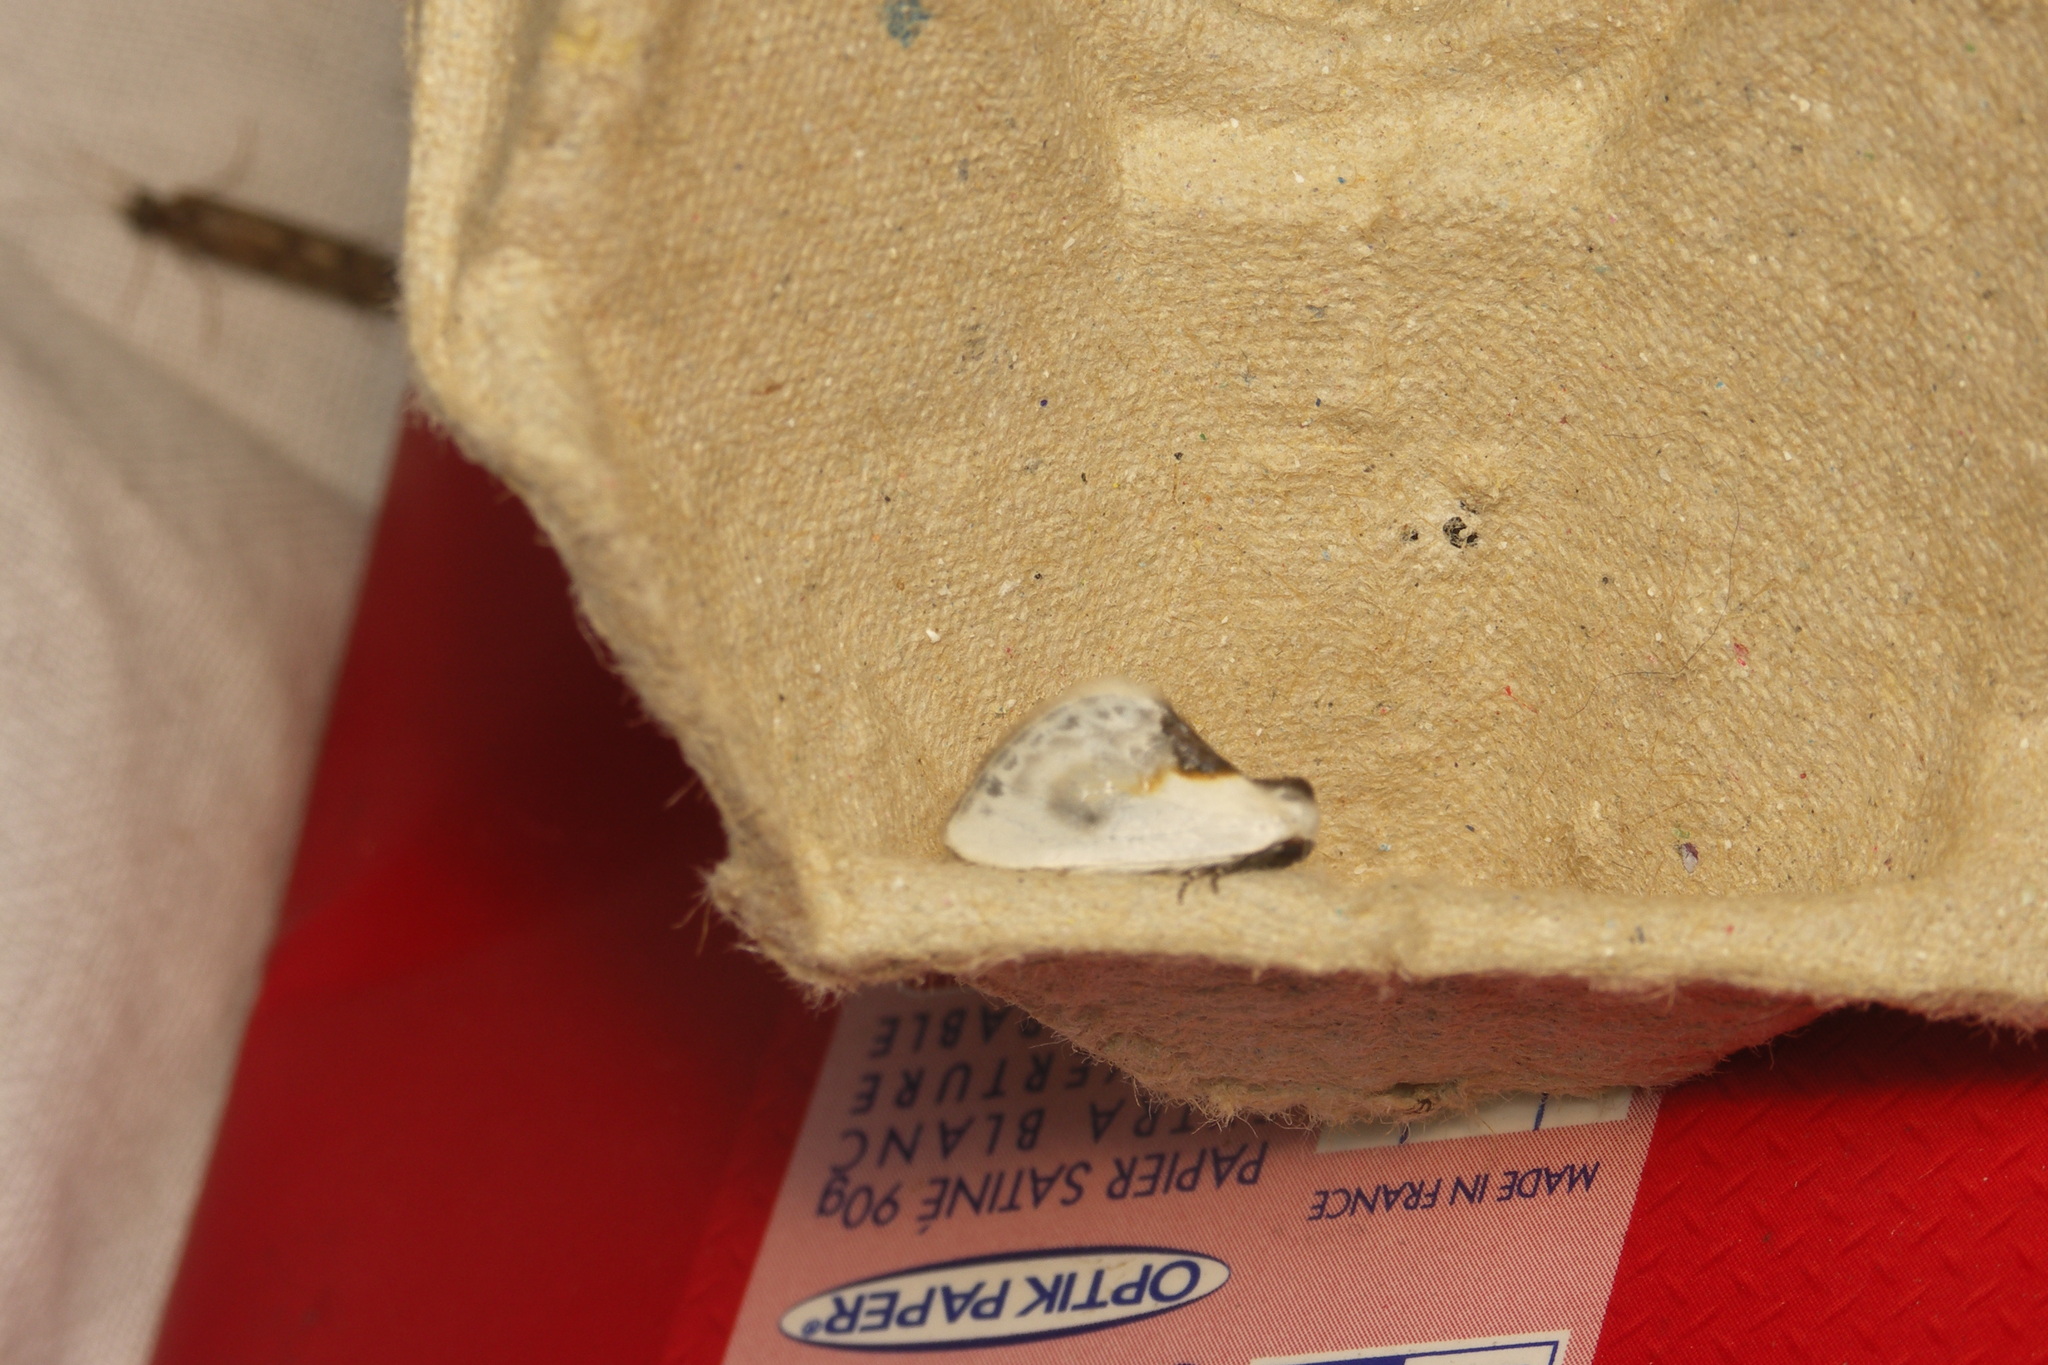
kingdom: Animalia
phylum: Arthropoda
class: Insecta
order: Lepidoptera
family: Drepanidae
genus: Cilix
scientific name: Cilix glaucata
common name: Chinese character
